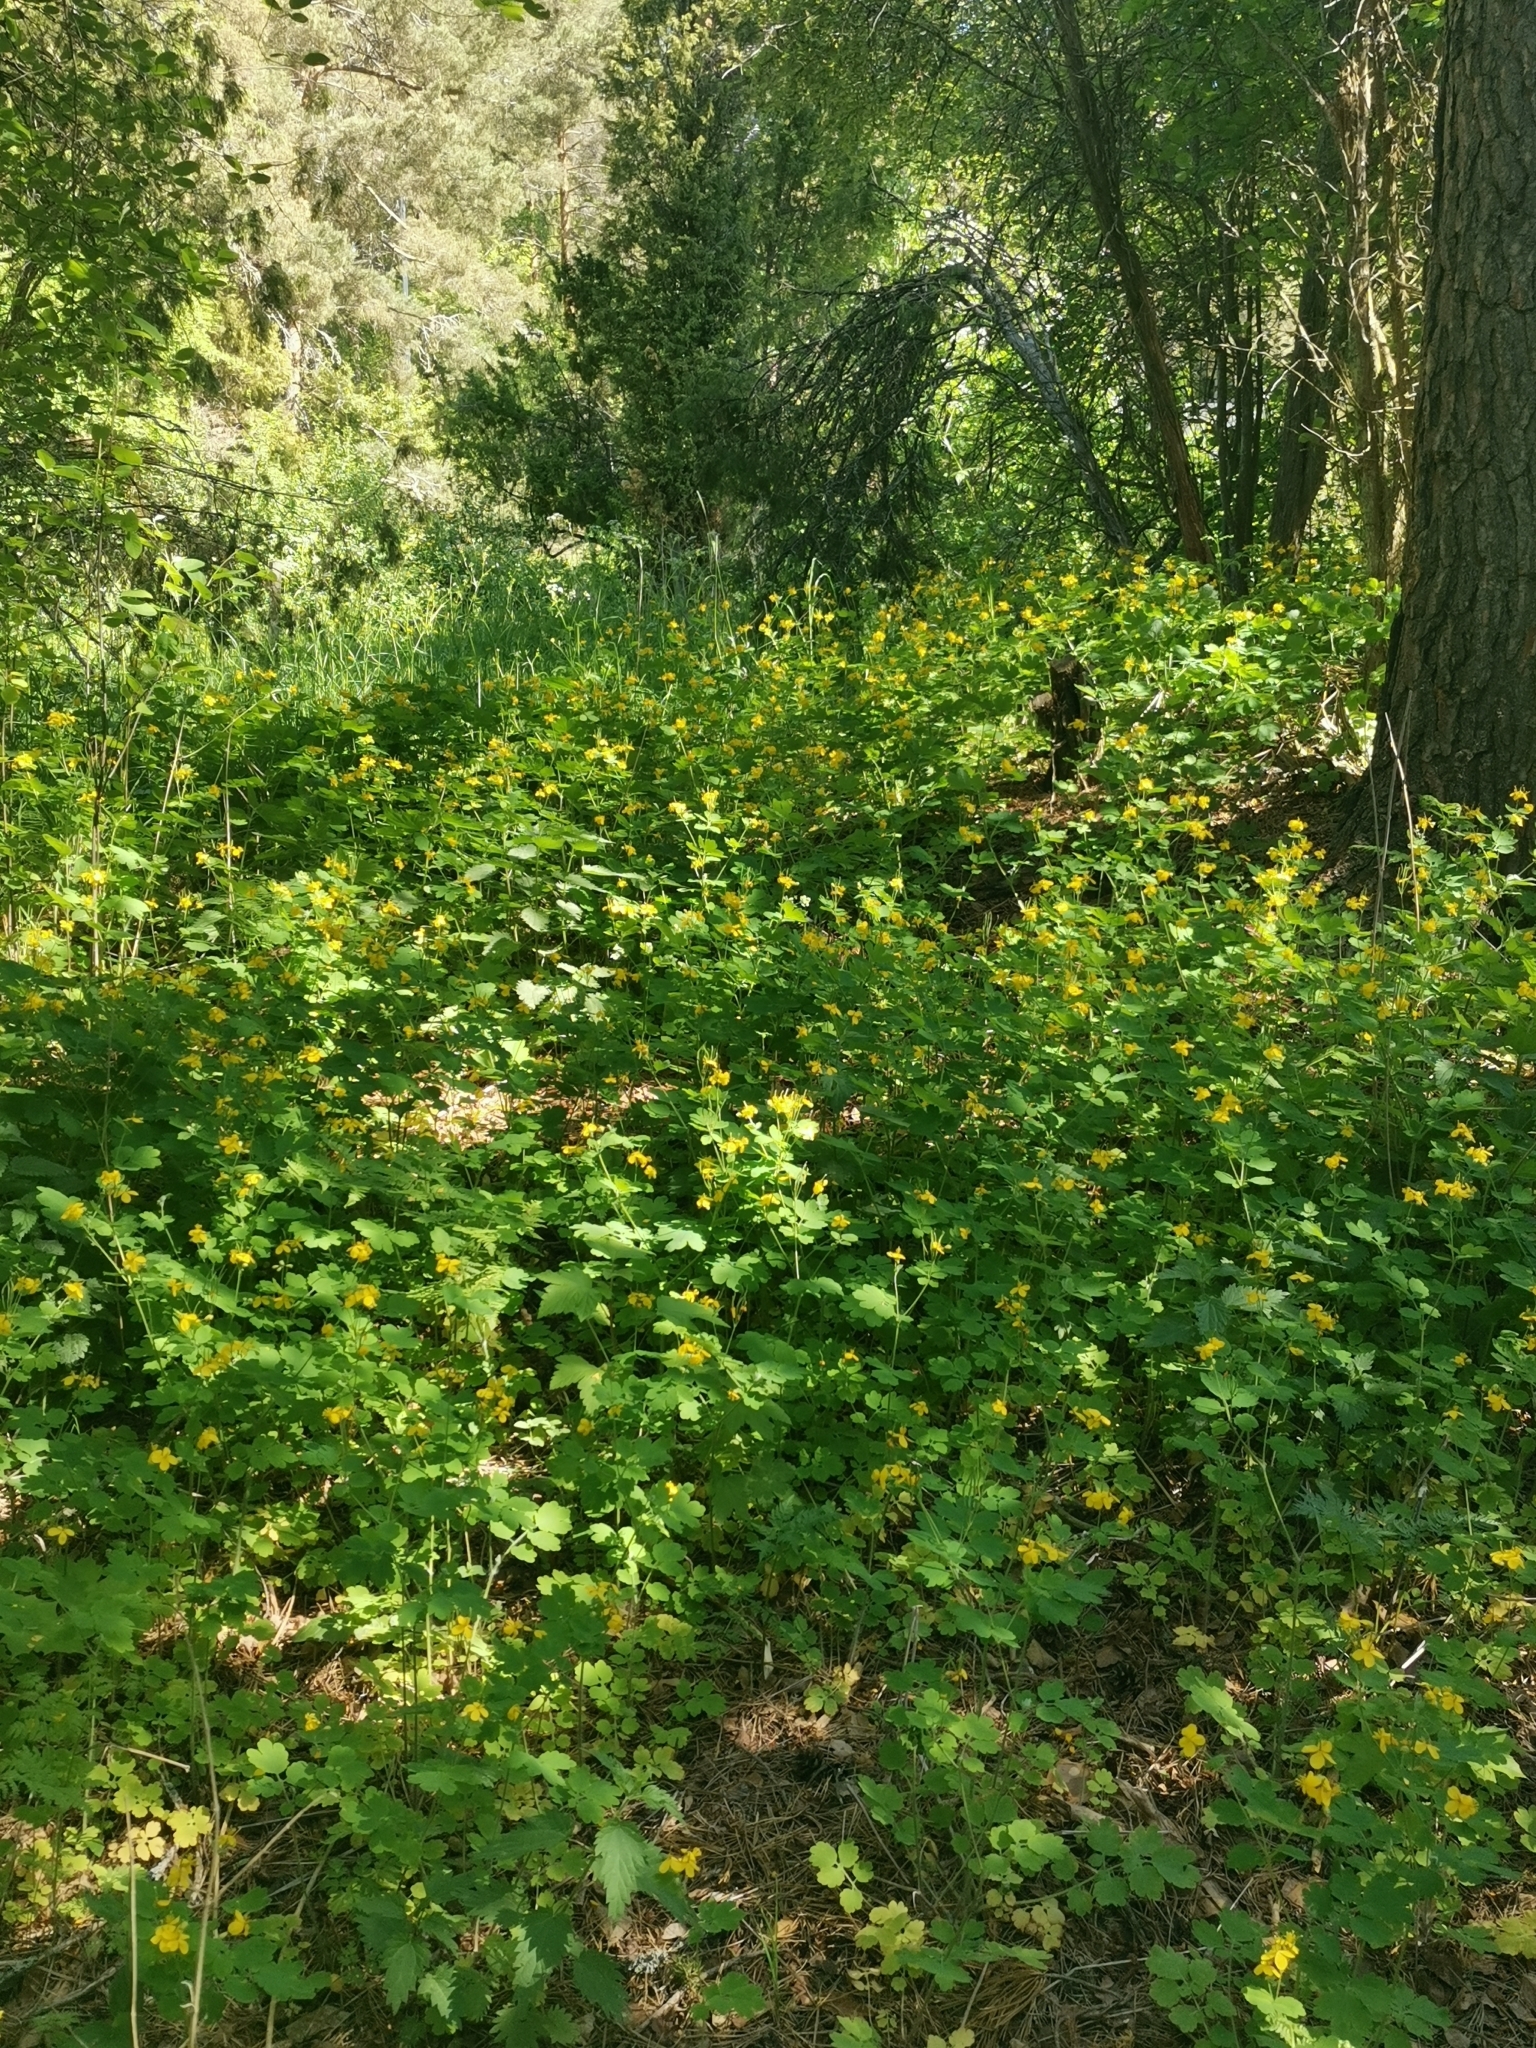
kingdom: Plantae
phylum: Tracheophyta
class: Magnoliopsida
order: Ranunculales
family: Papaveraceae
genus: Chelidonium
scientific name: Chelidonium majus
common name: Greater celandine
